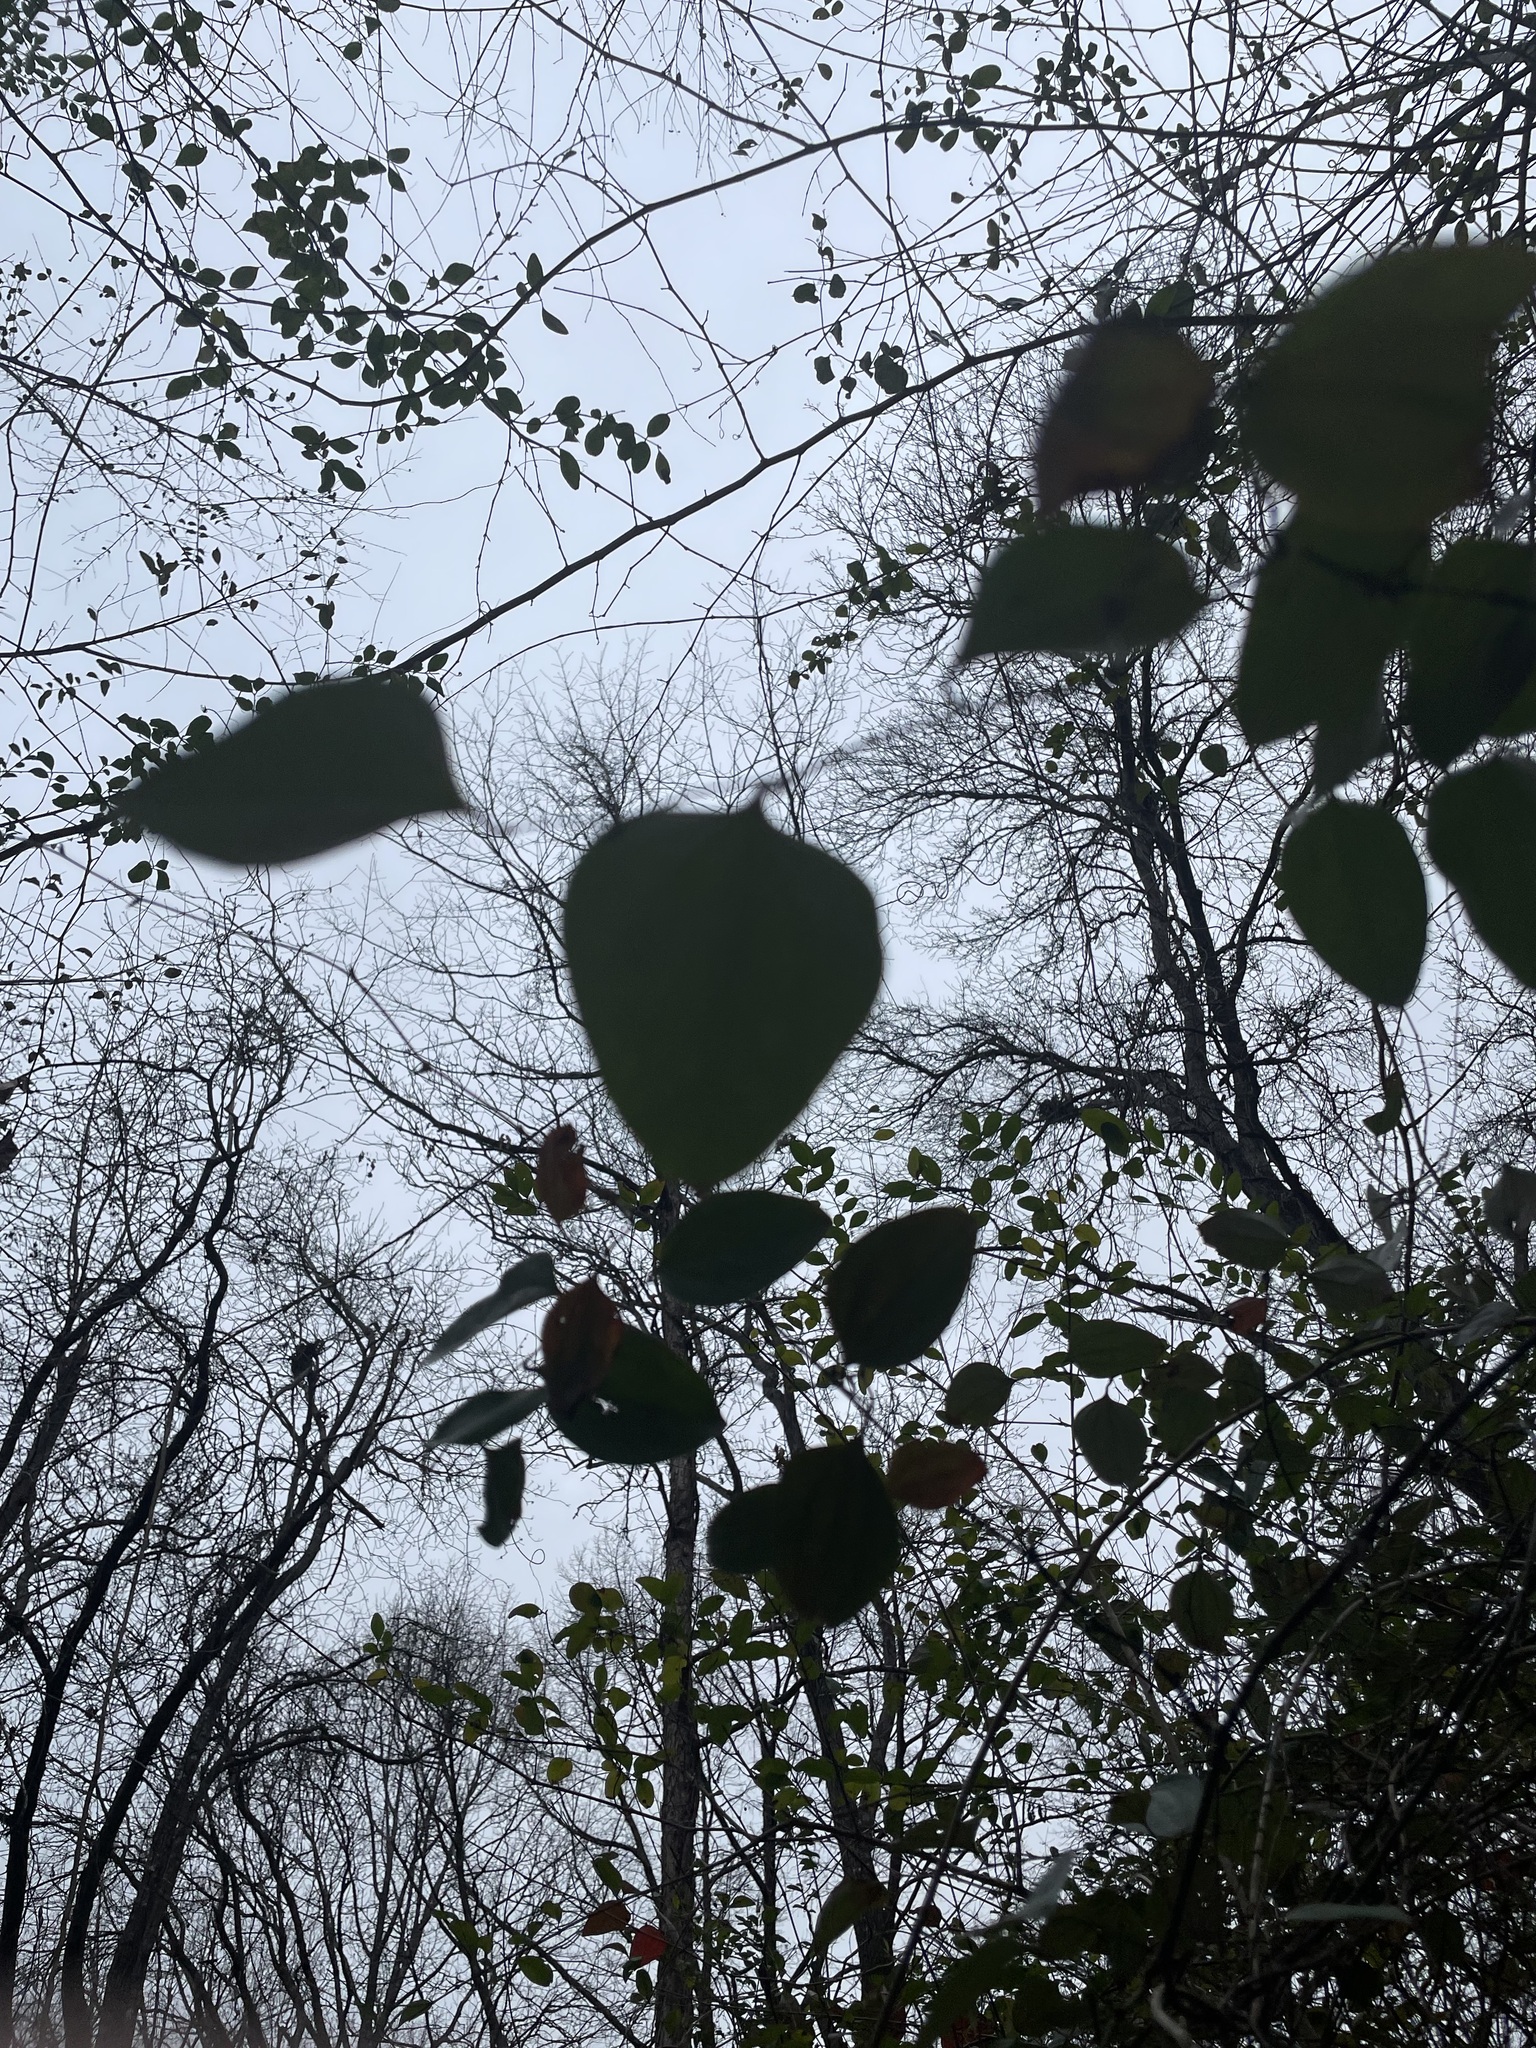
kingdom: Plantae
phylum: Tracheophyta
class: Liliopsida
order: Liliales
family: Smilacaceae
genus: Smilax
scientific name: Smilax glauca
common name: Cat greenbrier
